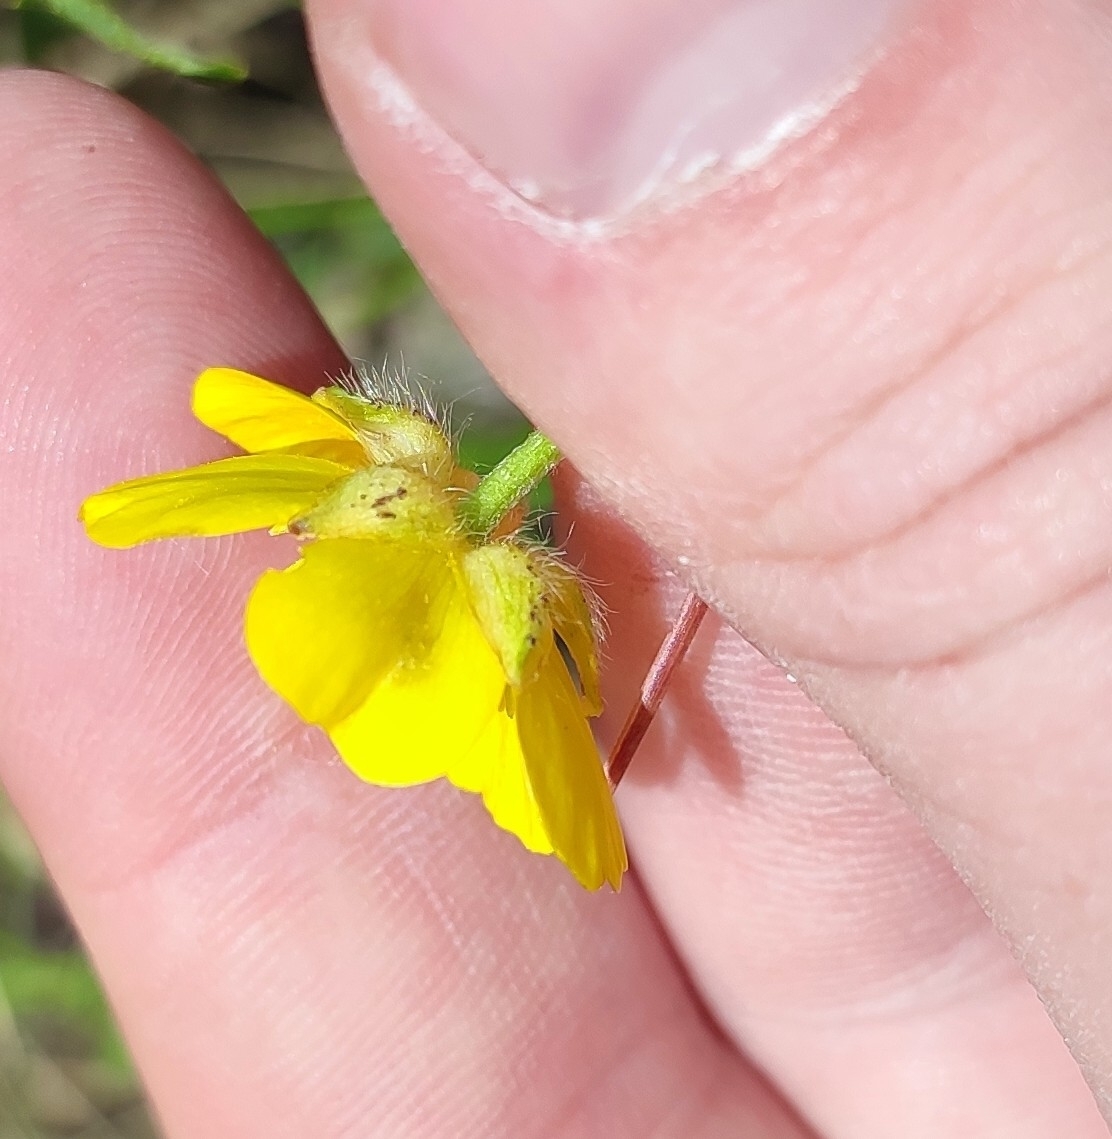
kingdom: Plantae
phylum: Tracheophyta
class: Magnoliopsida
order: Ranunculales
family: Ranunculaceae
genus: Ranunculus
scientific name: Ranunculus polyanthemos
